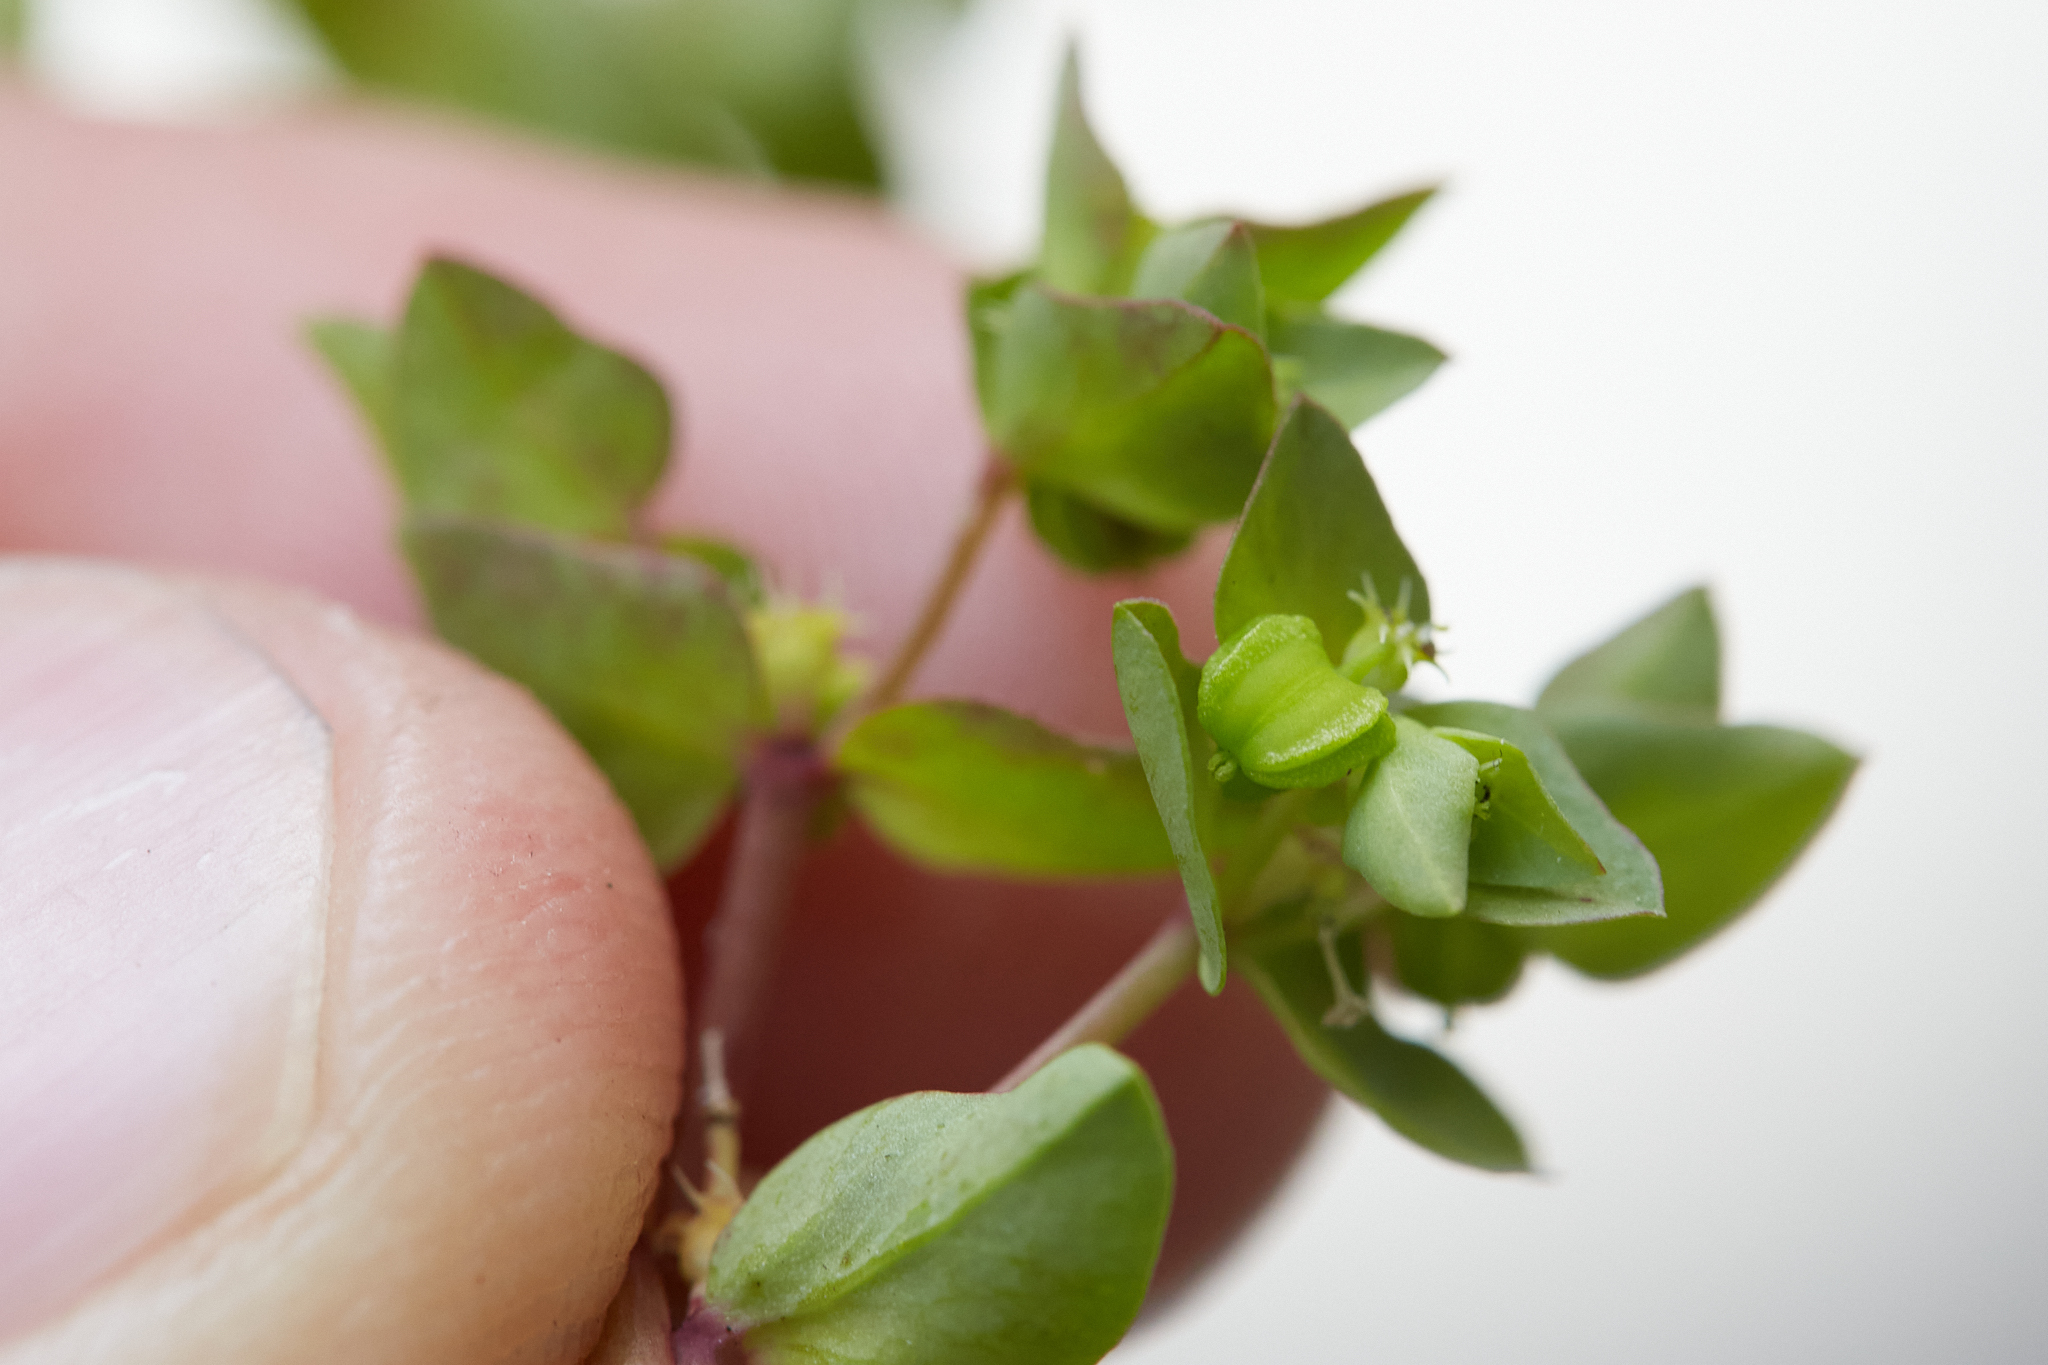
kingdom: Plantae
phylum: Tracheophyta
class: Magnoliopsida
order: Malpighiales
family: Euphorbiaceae
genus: Euphorbia
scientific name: Euphorbia peplus
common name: Petty spurge
